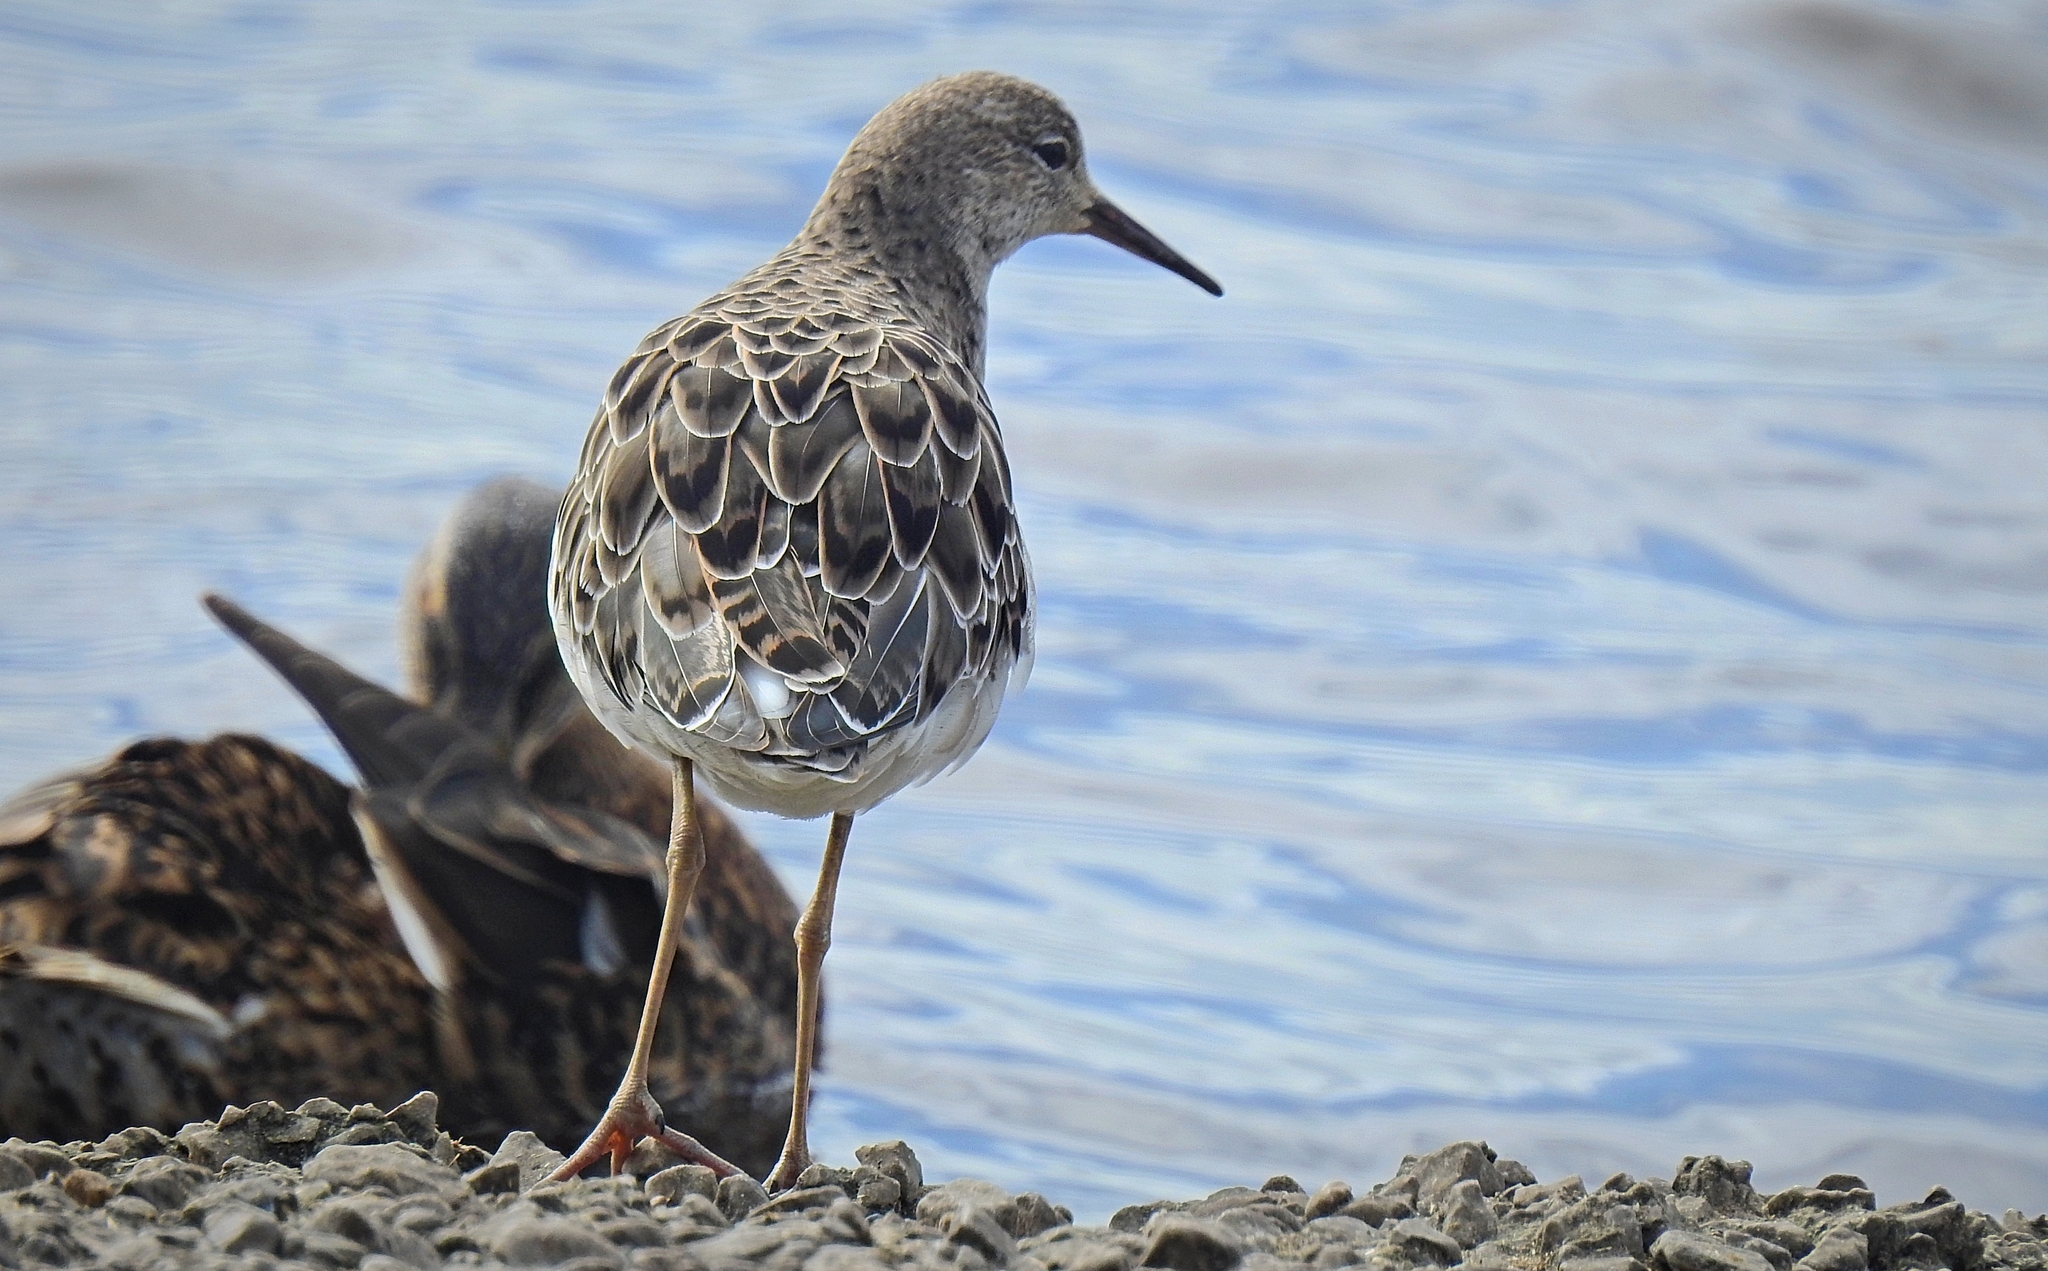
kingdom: Animalia
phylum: Chordata
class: Aves
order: Charadriiformes
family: Scolopacidae
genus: Calidris
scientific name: Calidris pugnax
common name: Ruff
